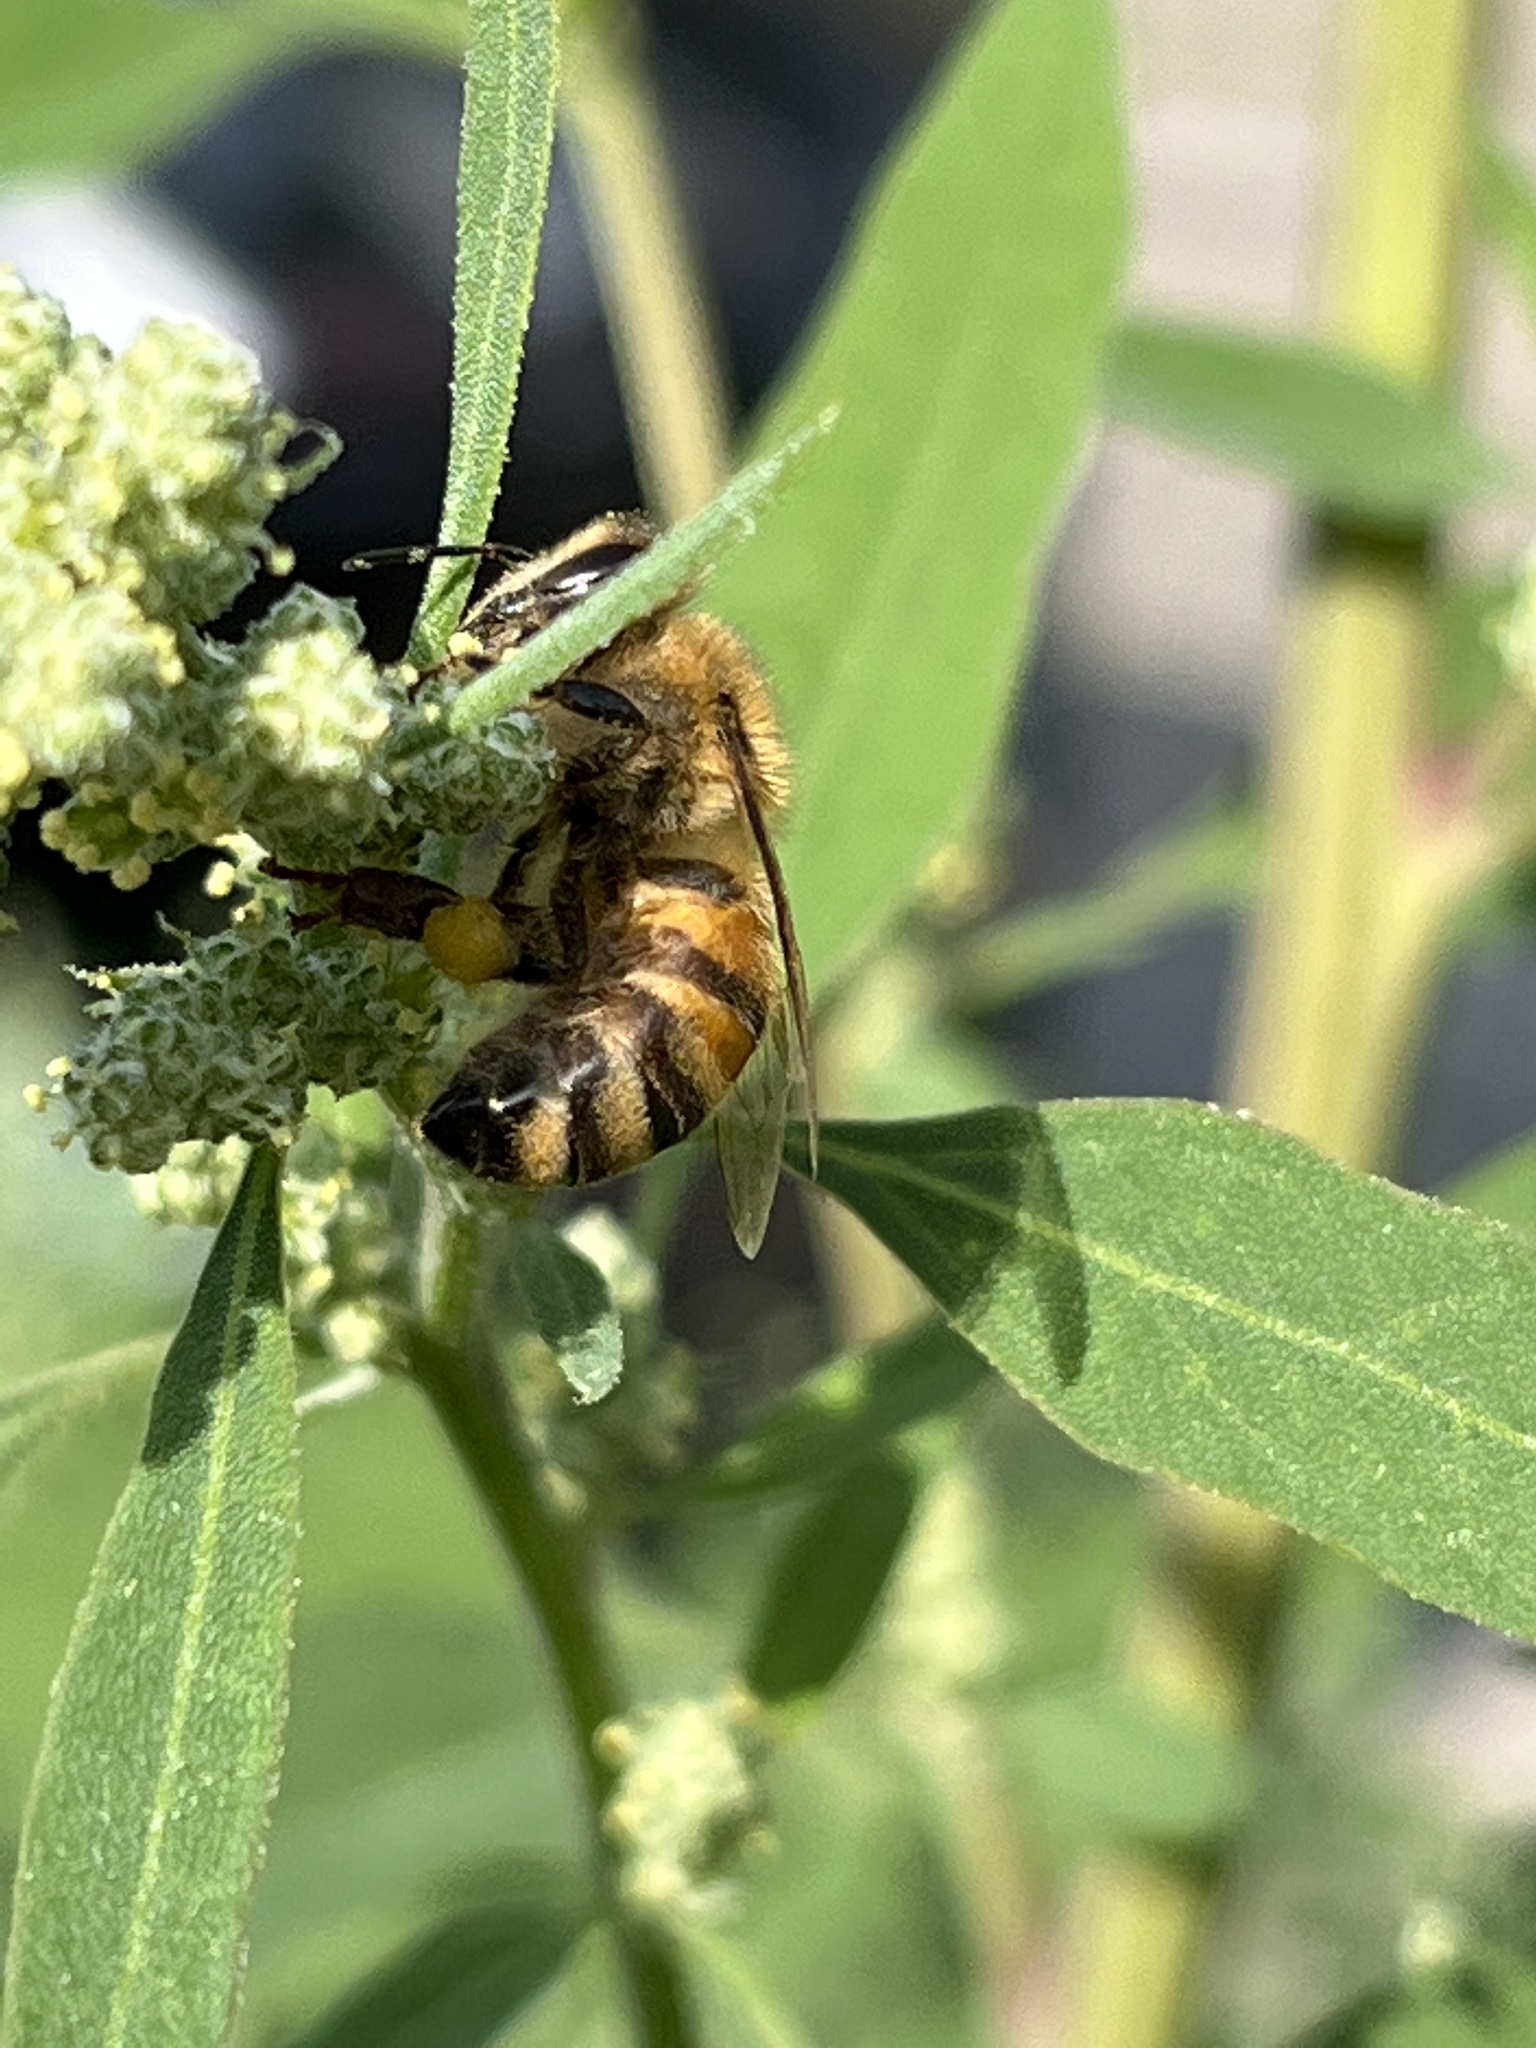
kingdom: Animalia
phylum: Arthropoda
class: Insecta
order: Hymenoptera
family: Apidae
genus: Apis
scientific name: Apis mellifera
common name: Honey bee
